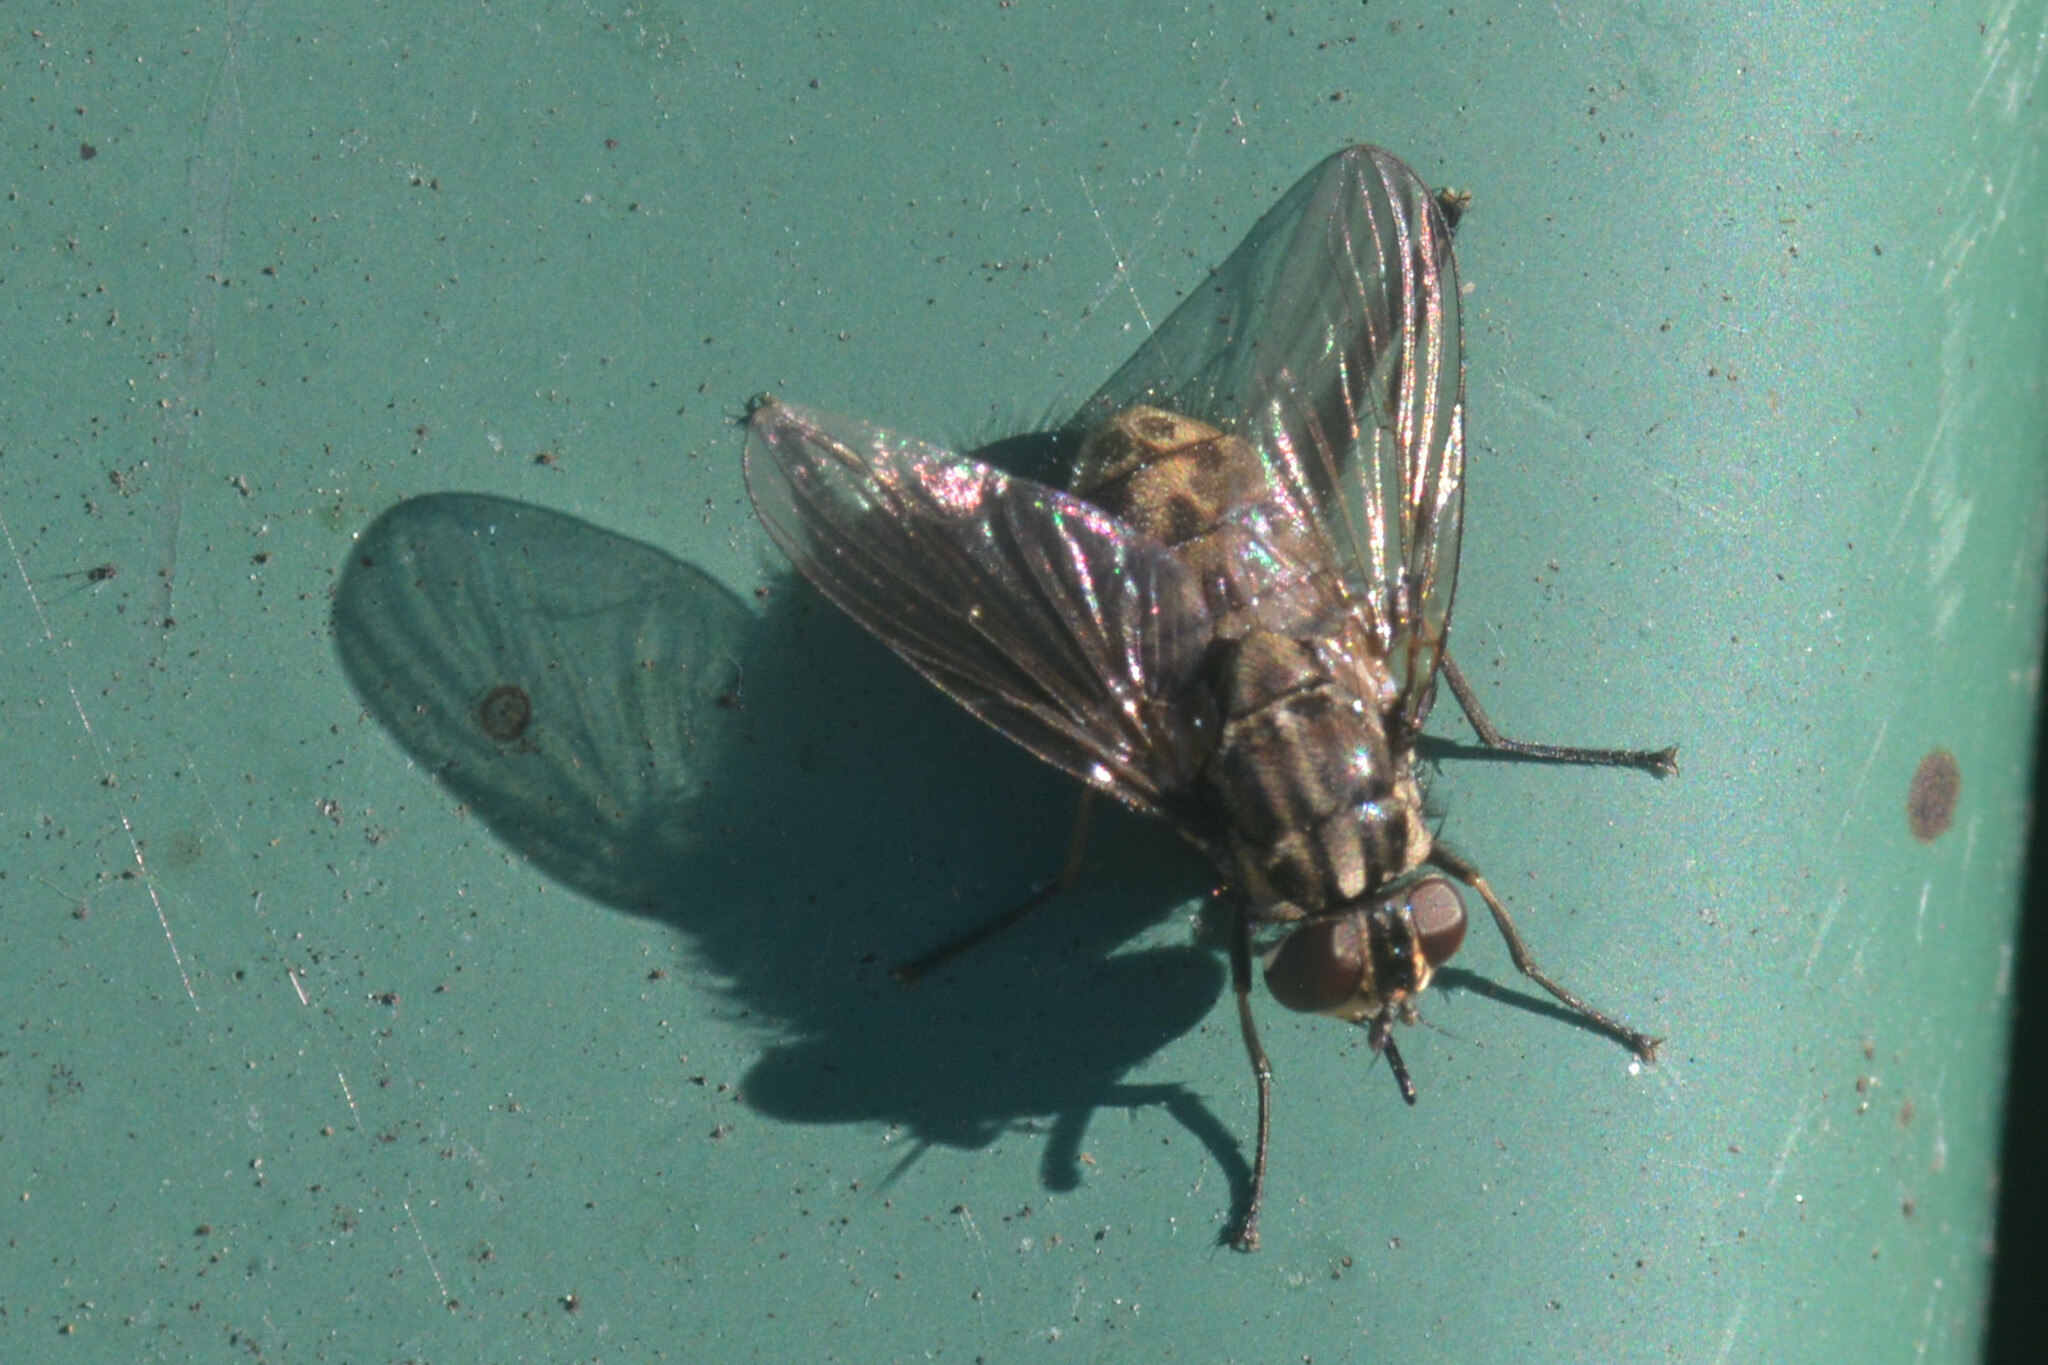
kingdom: Animalia
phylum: Arthropoda
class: Insecta
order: Diptera
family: Muscidae
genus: Stomoxys
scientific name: Stomoxys calcitrans
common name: Stable fly
